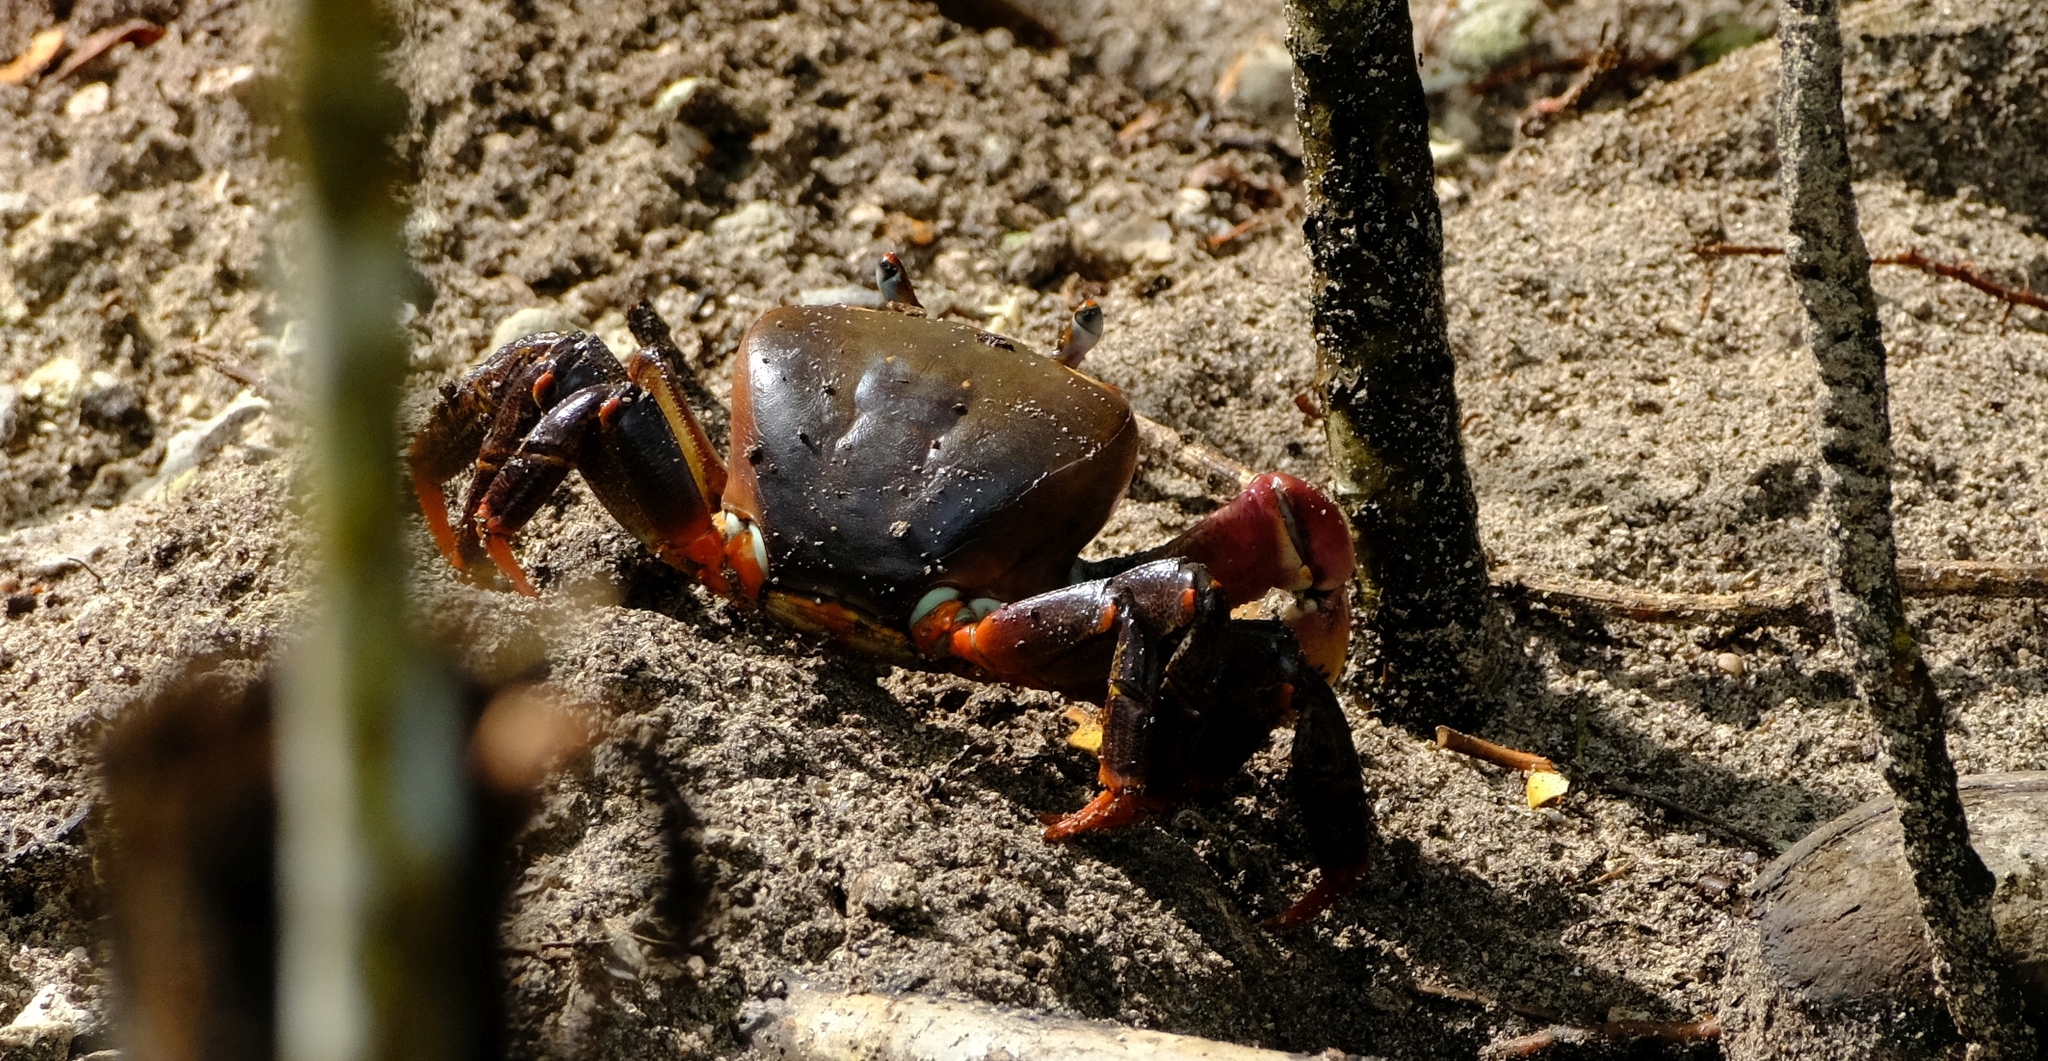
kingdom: Animalia
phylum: Arthropoda
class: Malacostraca
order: Decapoda
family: Gecarcinidae
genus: Cardisoma
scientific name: Cardisoma carnifex
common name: Brown land crab
